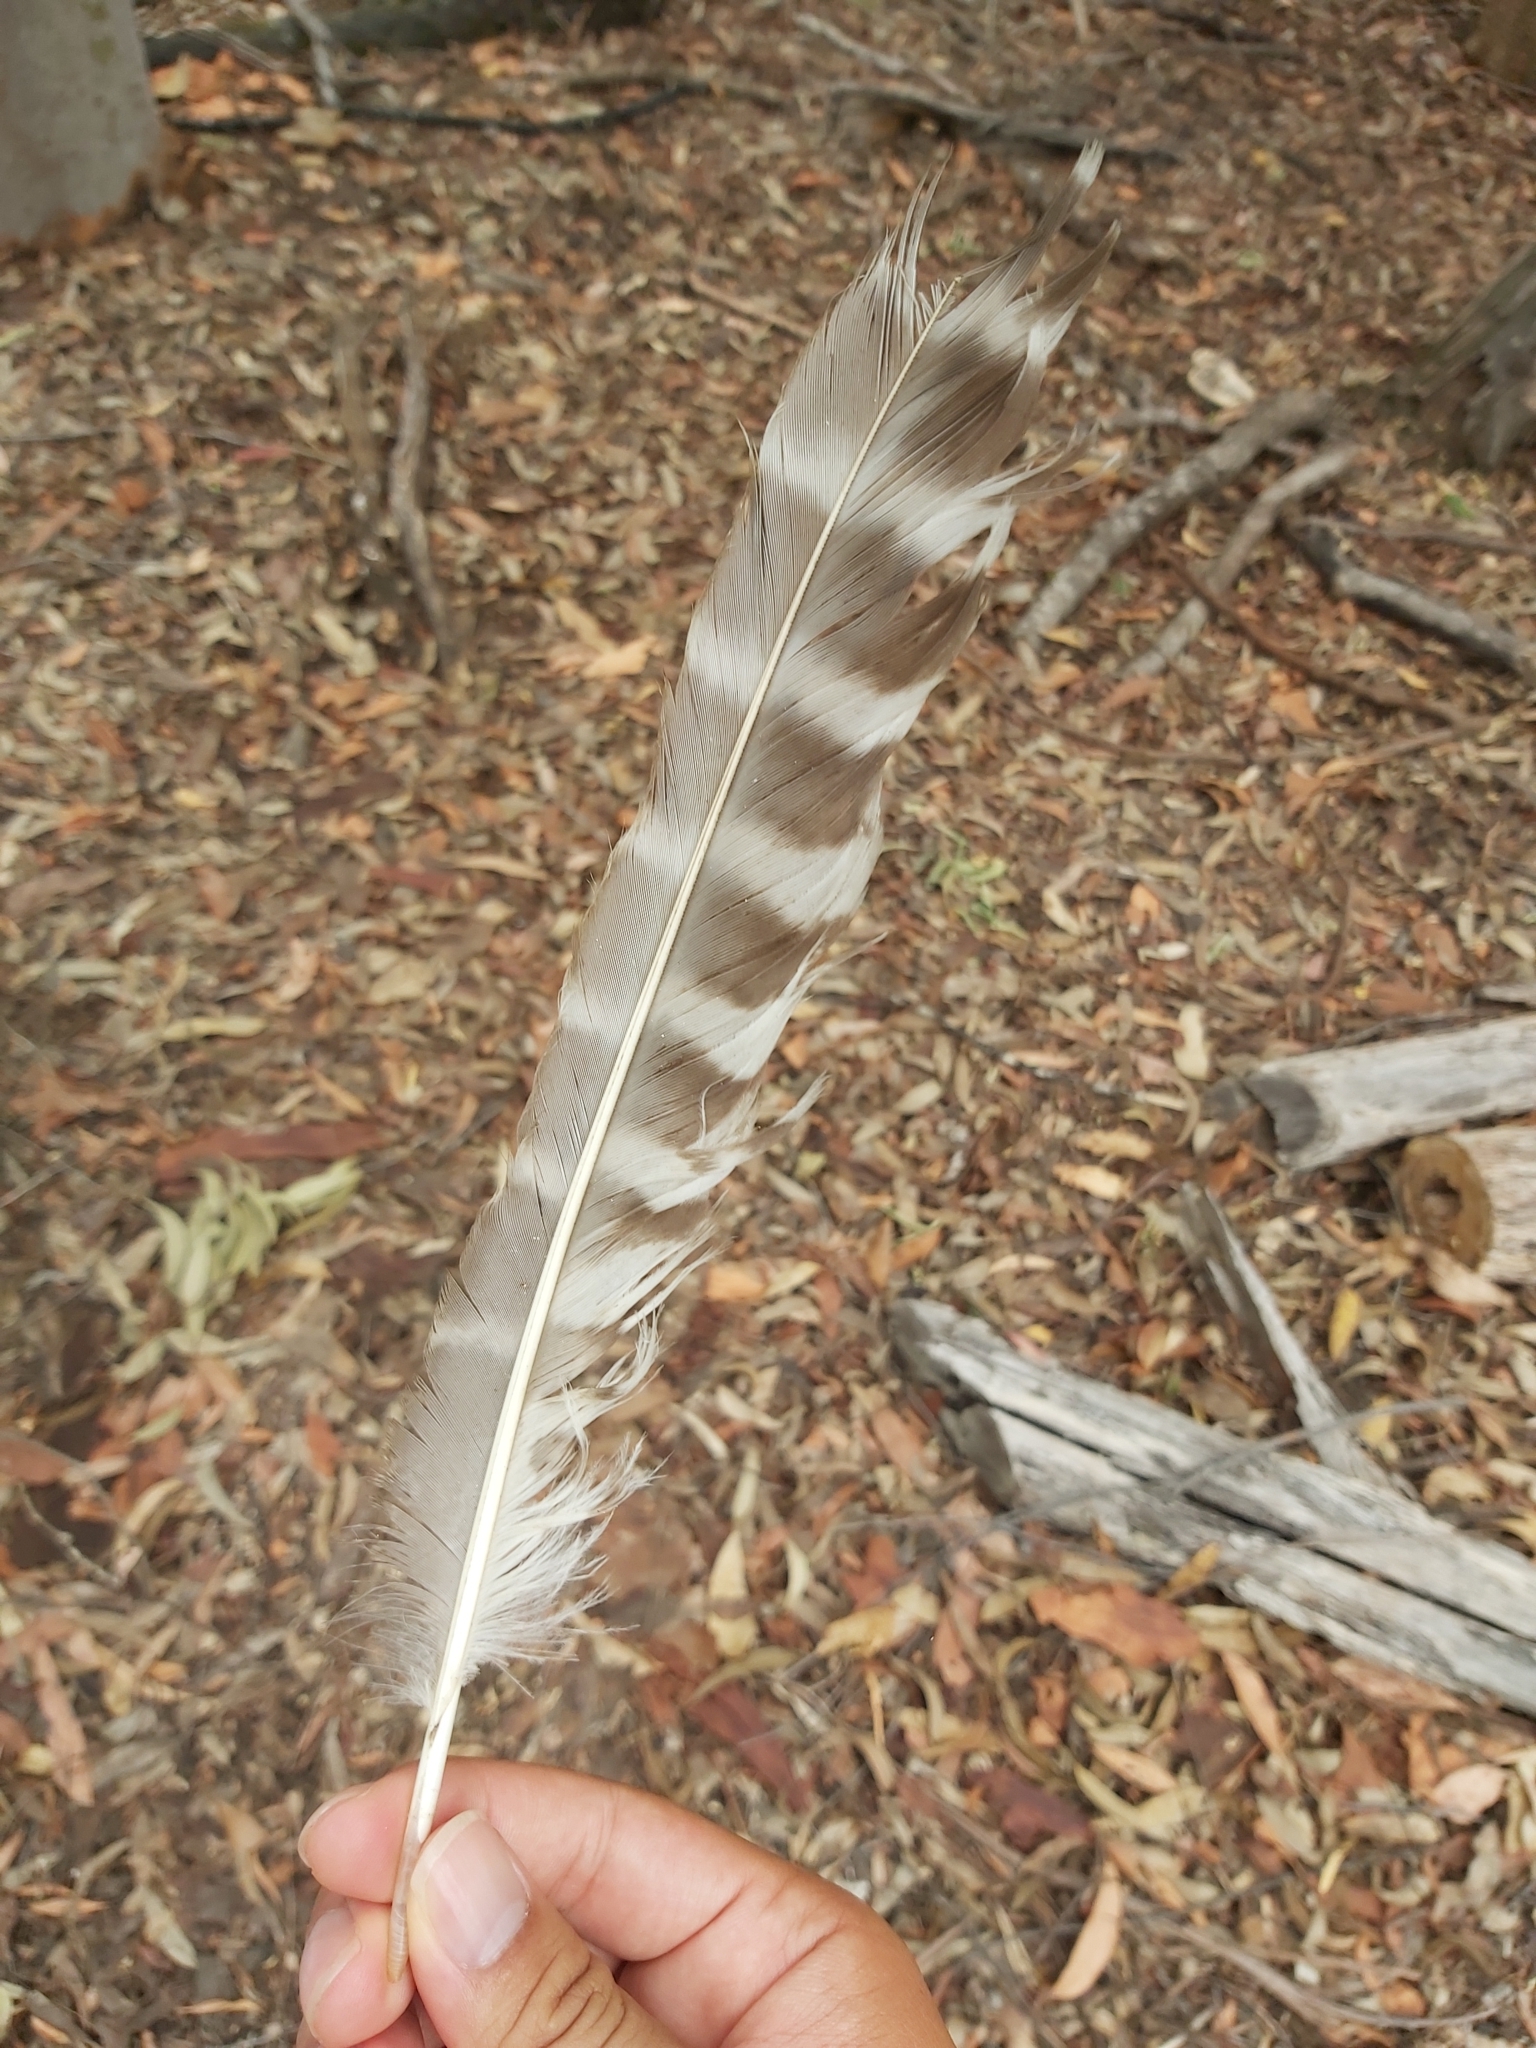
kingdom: Animalia
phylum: Chordata
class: Aves
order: Strigiformes
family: Strigidae
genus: Ninox
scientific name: Ninox strenua
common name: Powerful owl
